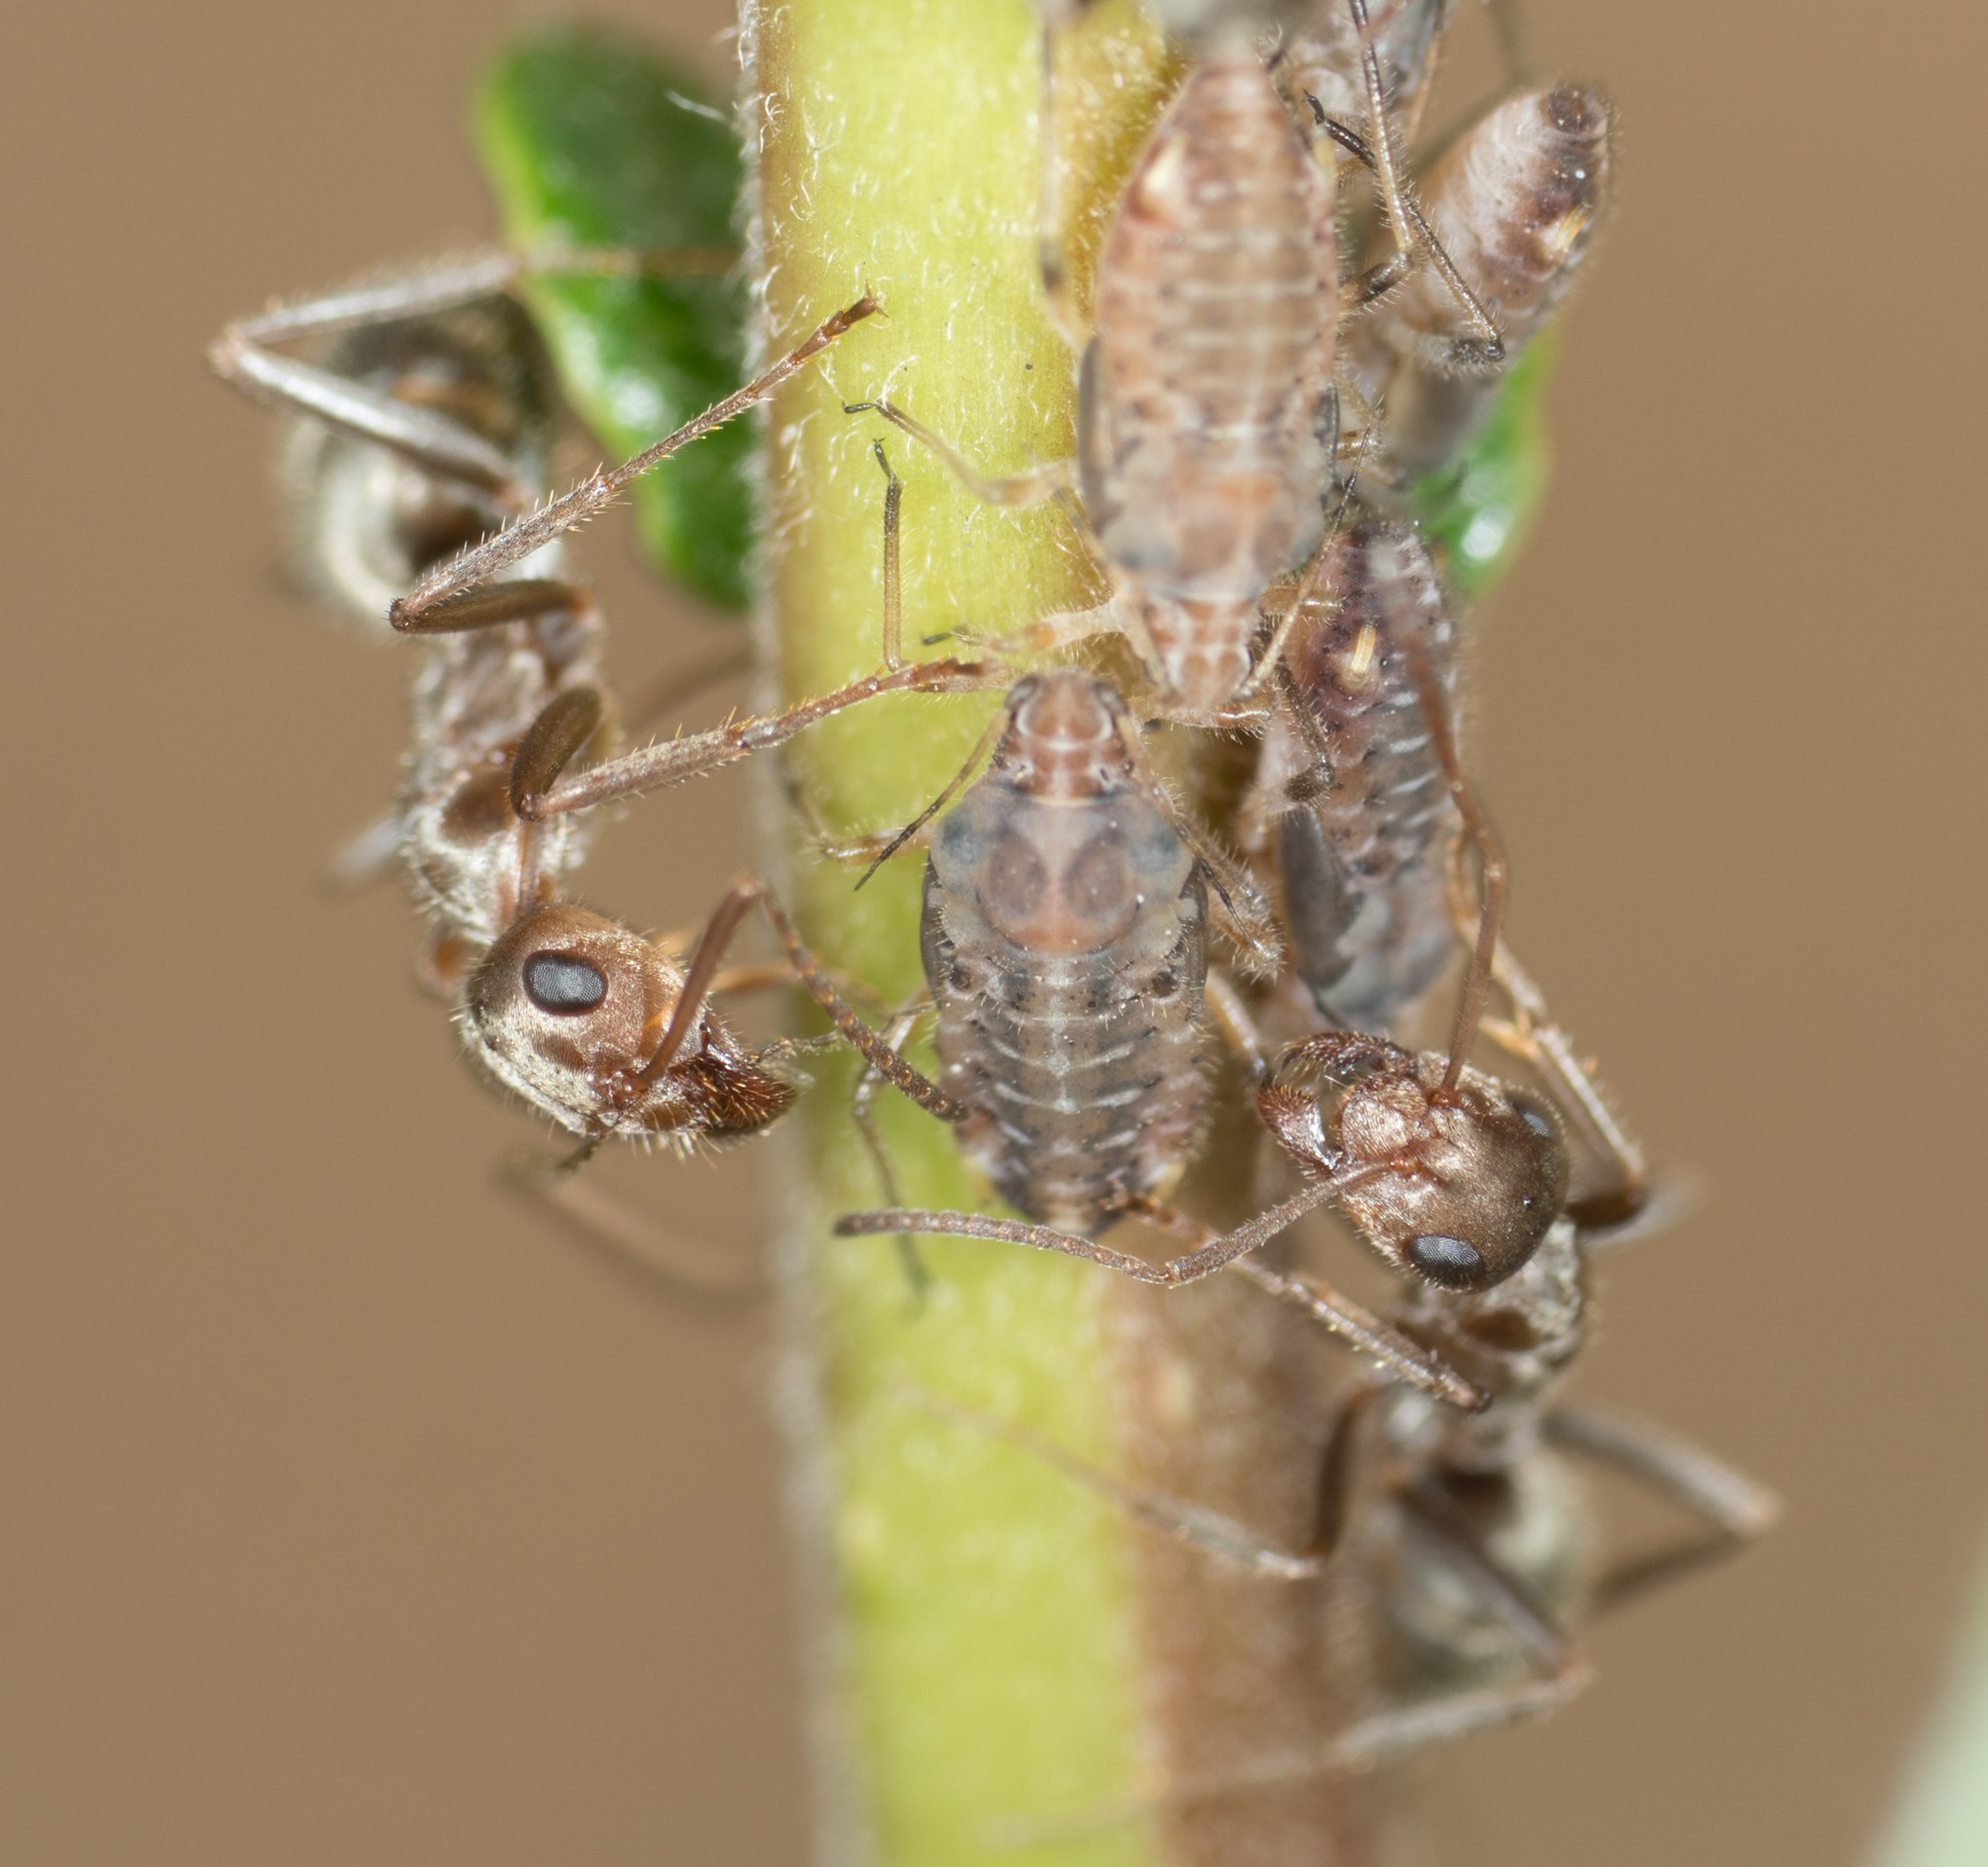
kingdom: Animalia
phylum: Arthropoda
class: Insecta
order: Hymenoptera
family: Formicidae
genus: Formica
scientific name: Formica francoeuri
